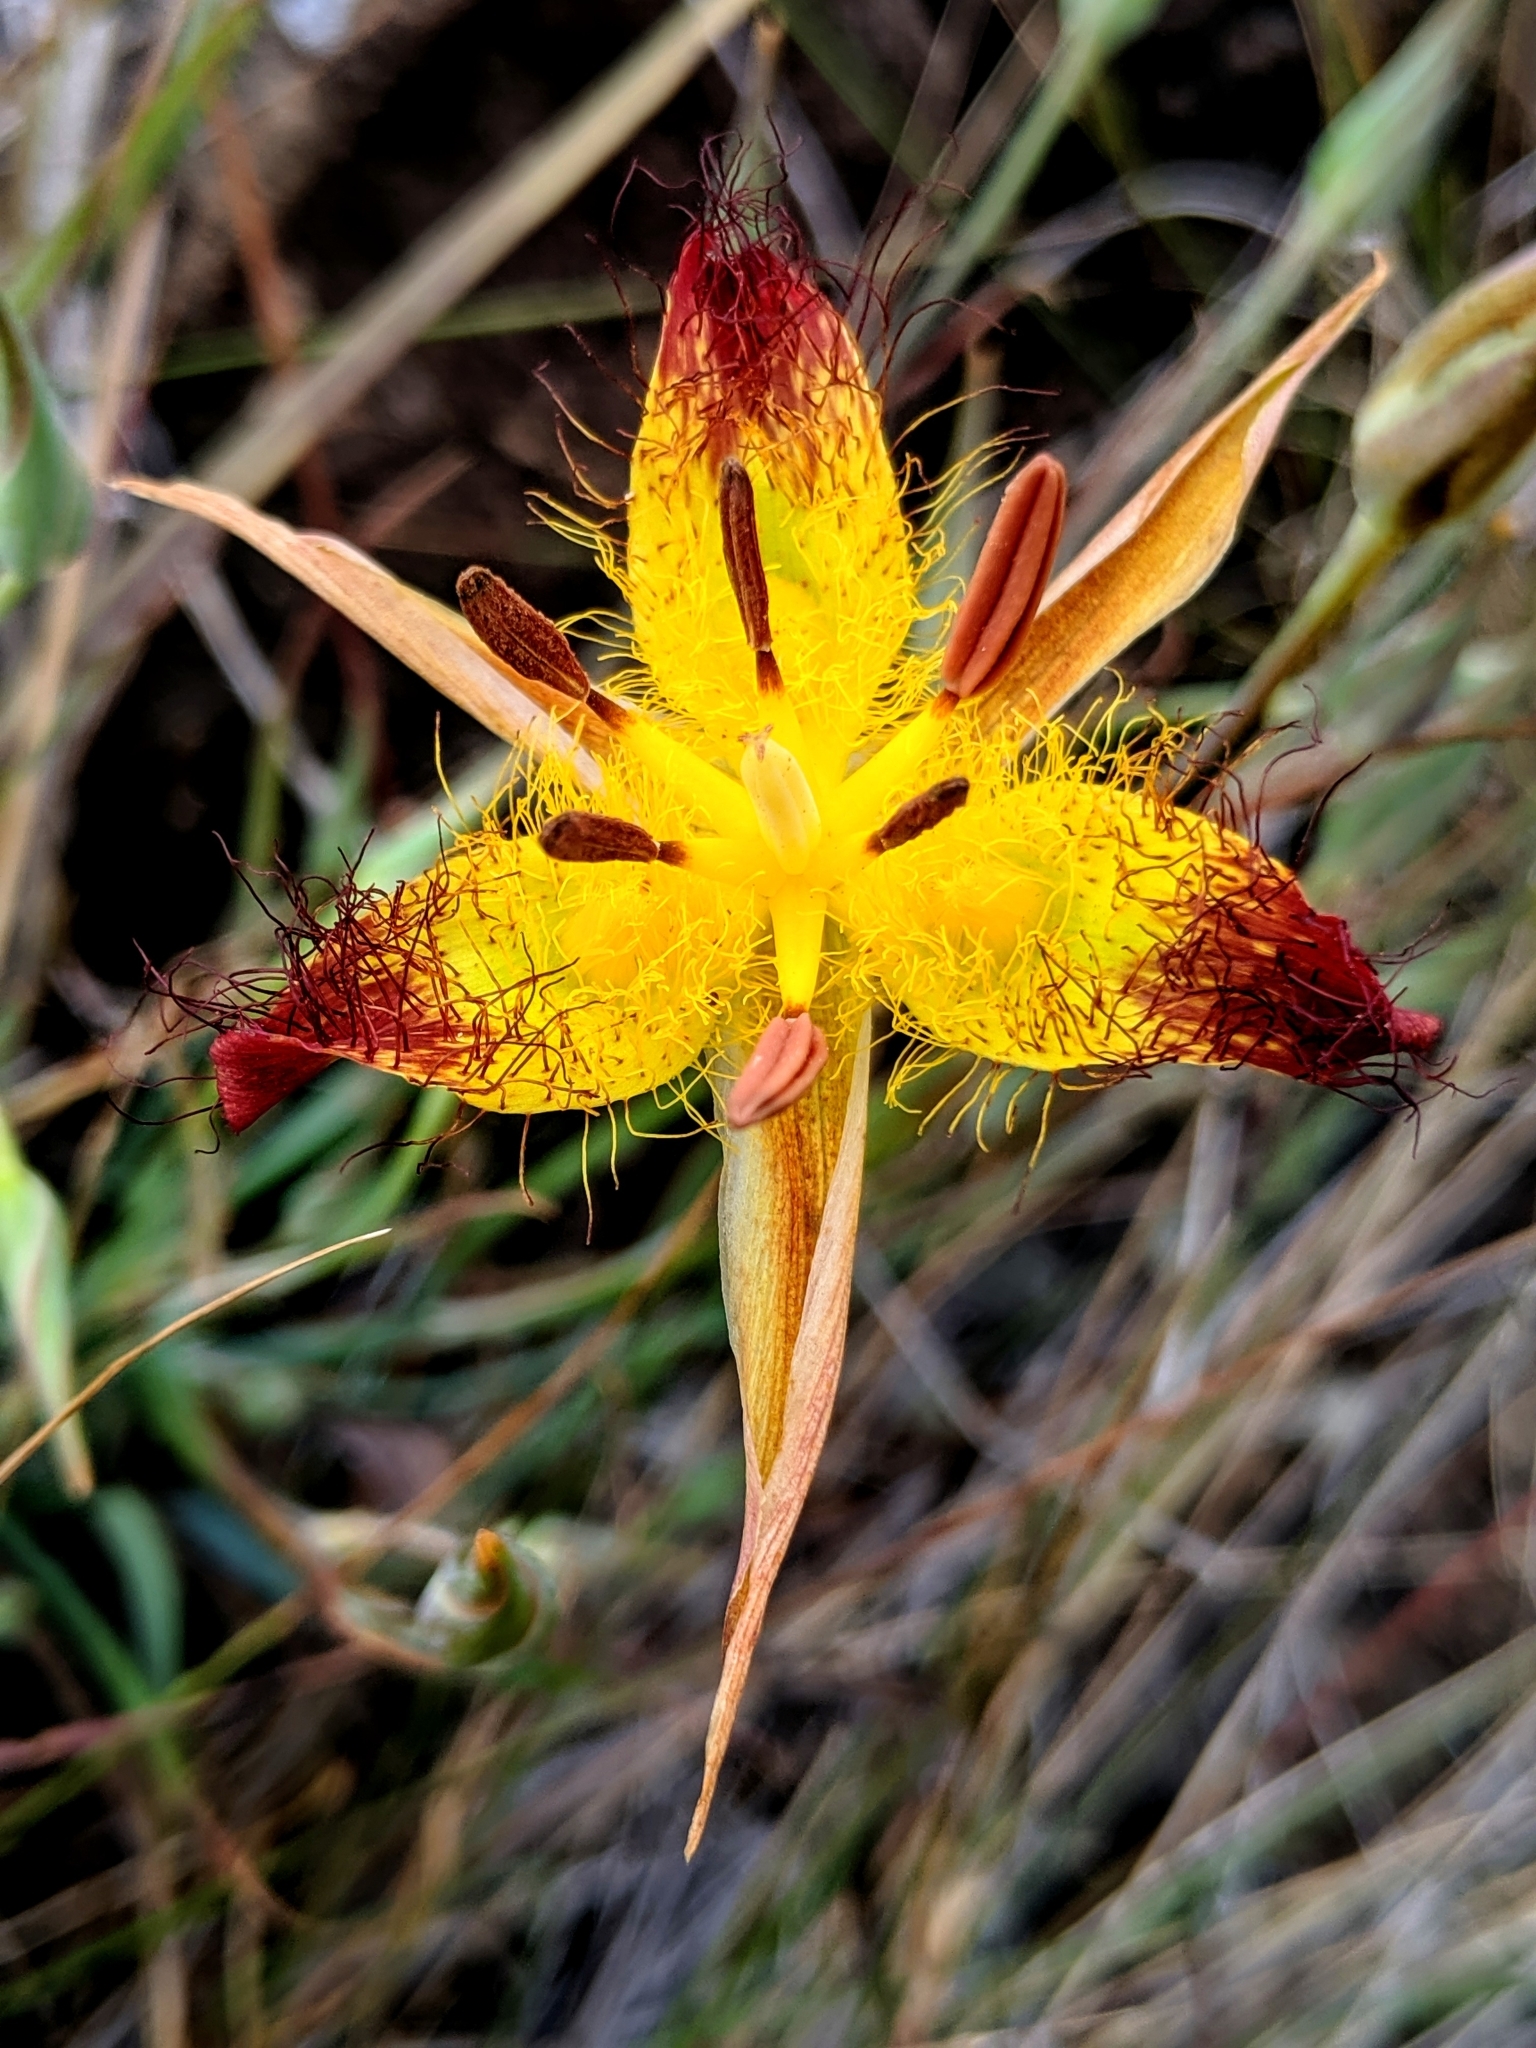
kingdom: Plantae
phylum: Tracheophyta
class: Liliopsida
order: Liliales
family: Liliaceae
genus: Calochortus
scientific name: Calochortus obispoensis
